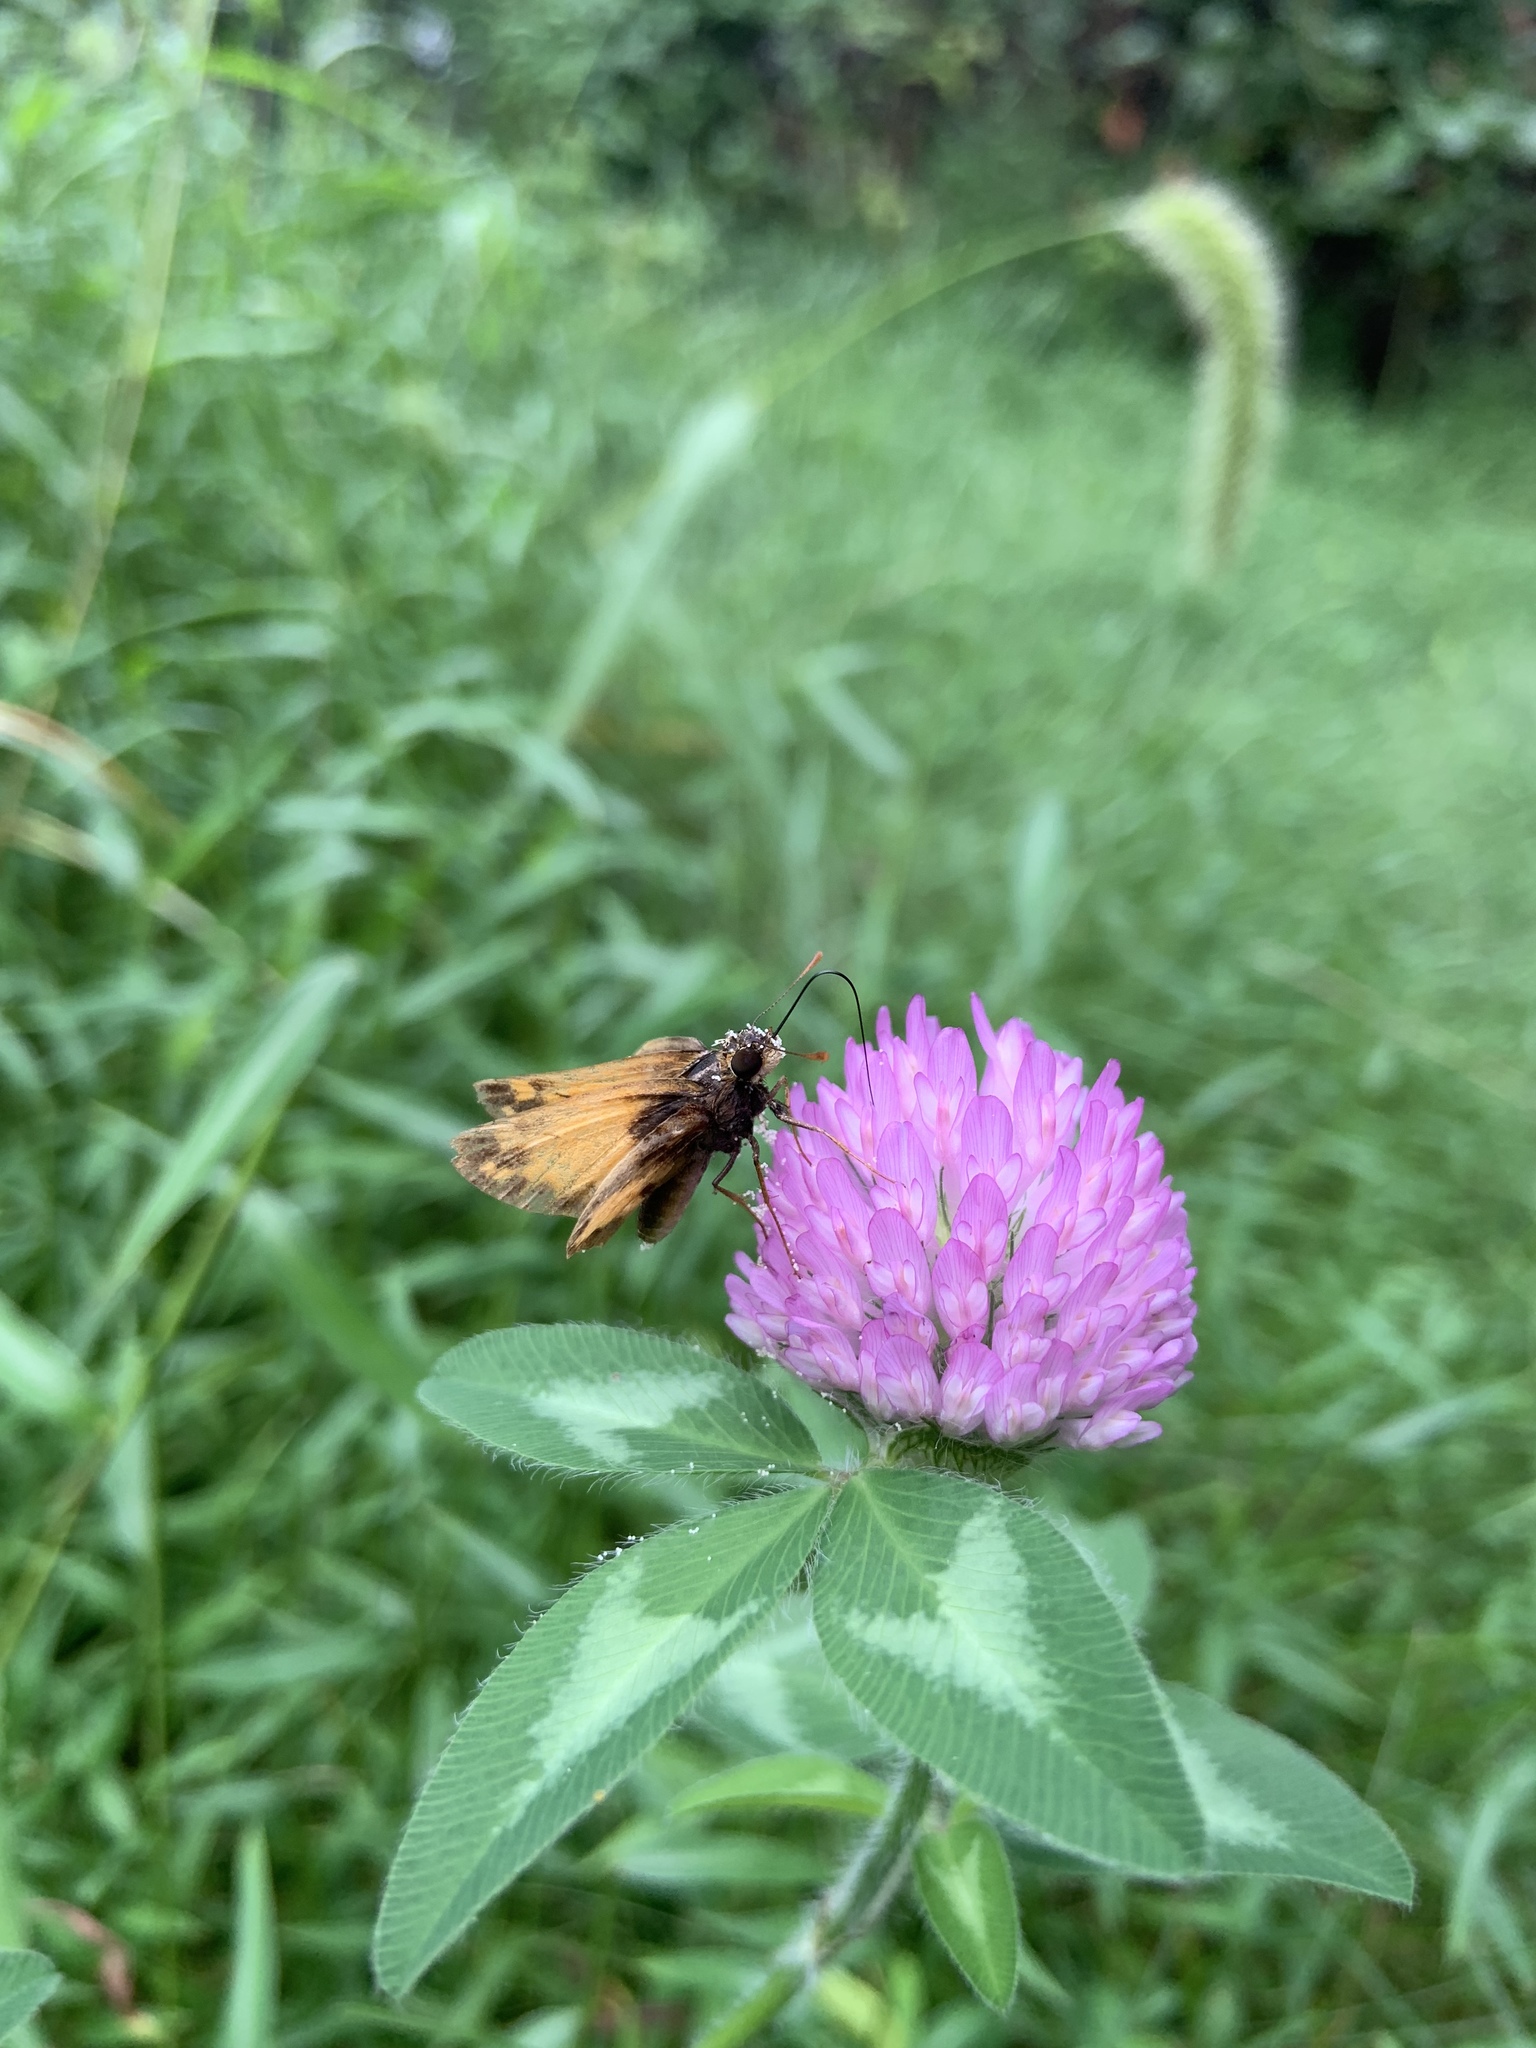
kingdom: Animalia
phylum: Arthropoda
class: Insecta
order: Lepidoptera
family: Hesperiidae
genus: Lon
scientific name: Lon zabulon
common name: Zabulon skipper
